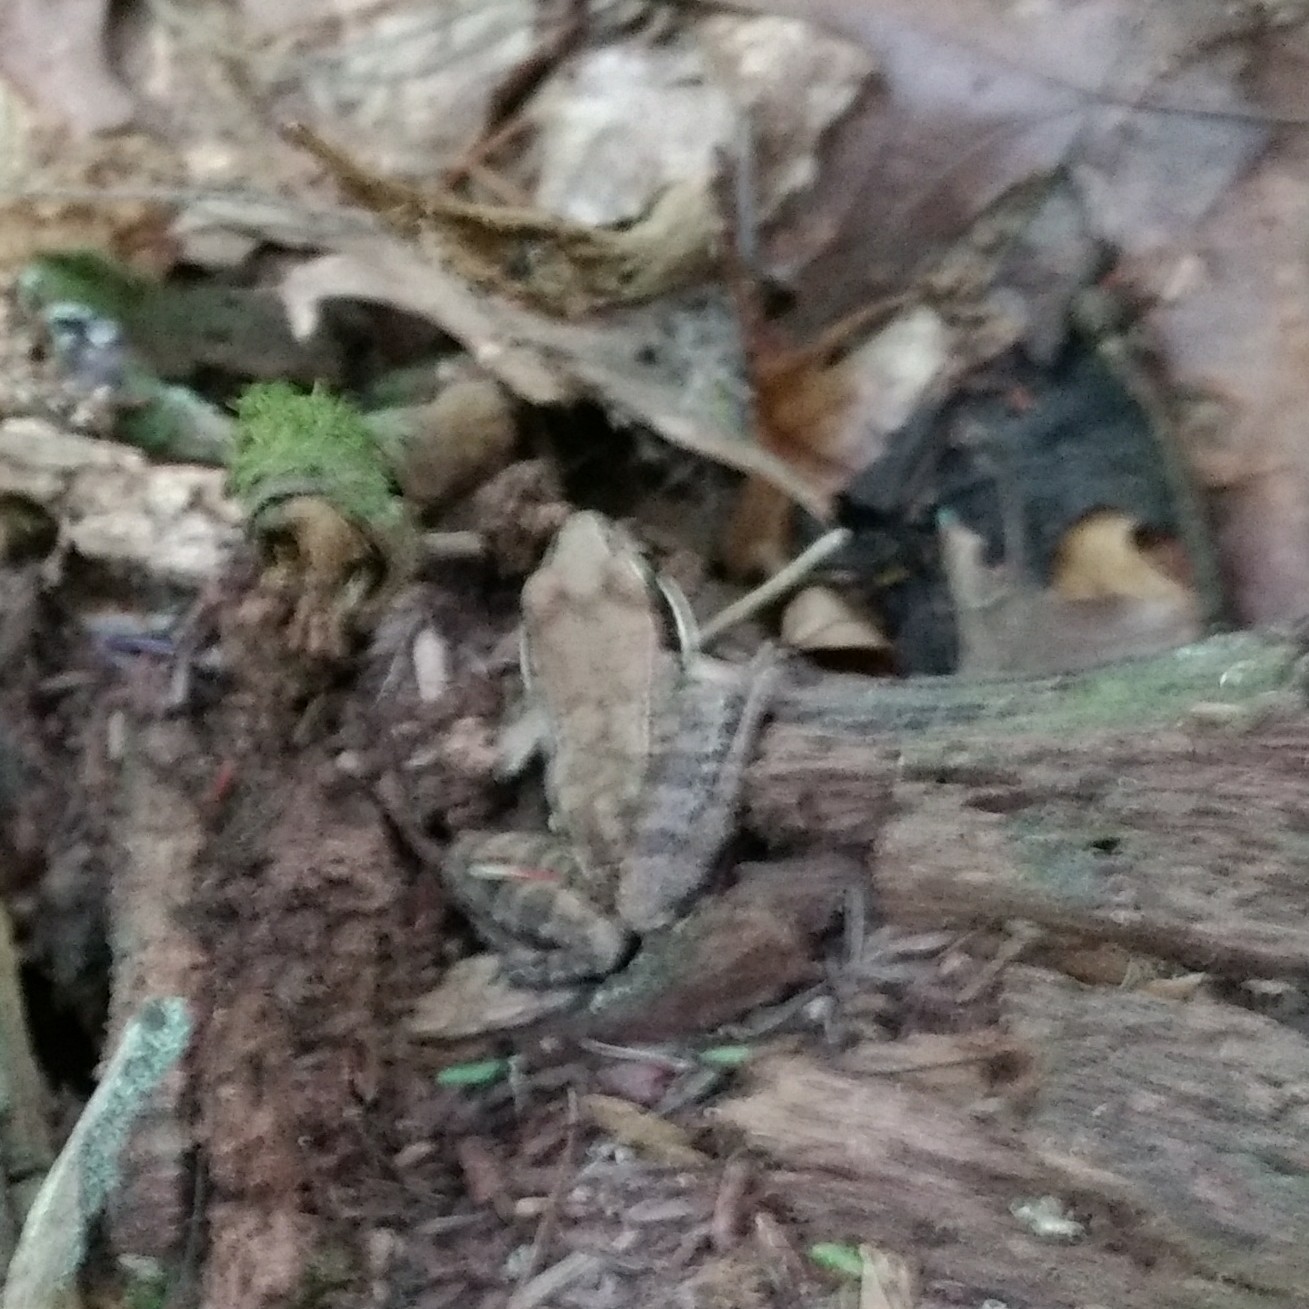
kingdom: Animalia
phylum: Chordata
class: Amphibia
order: Anura
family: Ranidae
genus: Lithobates
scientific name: Lithobates sylvaticus
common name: Wood frog
